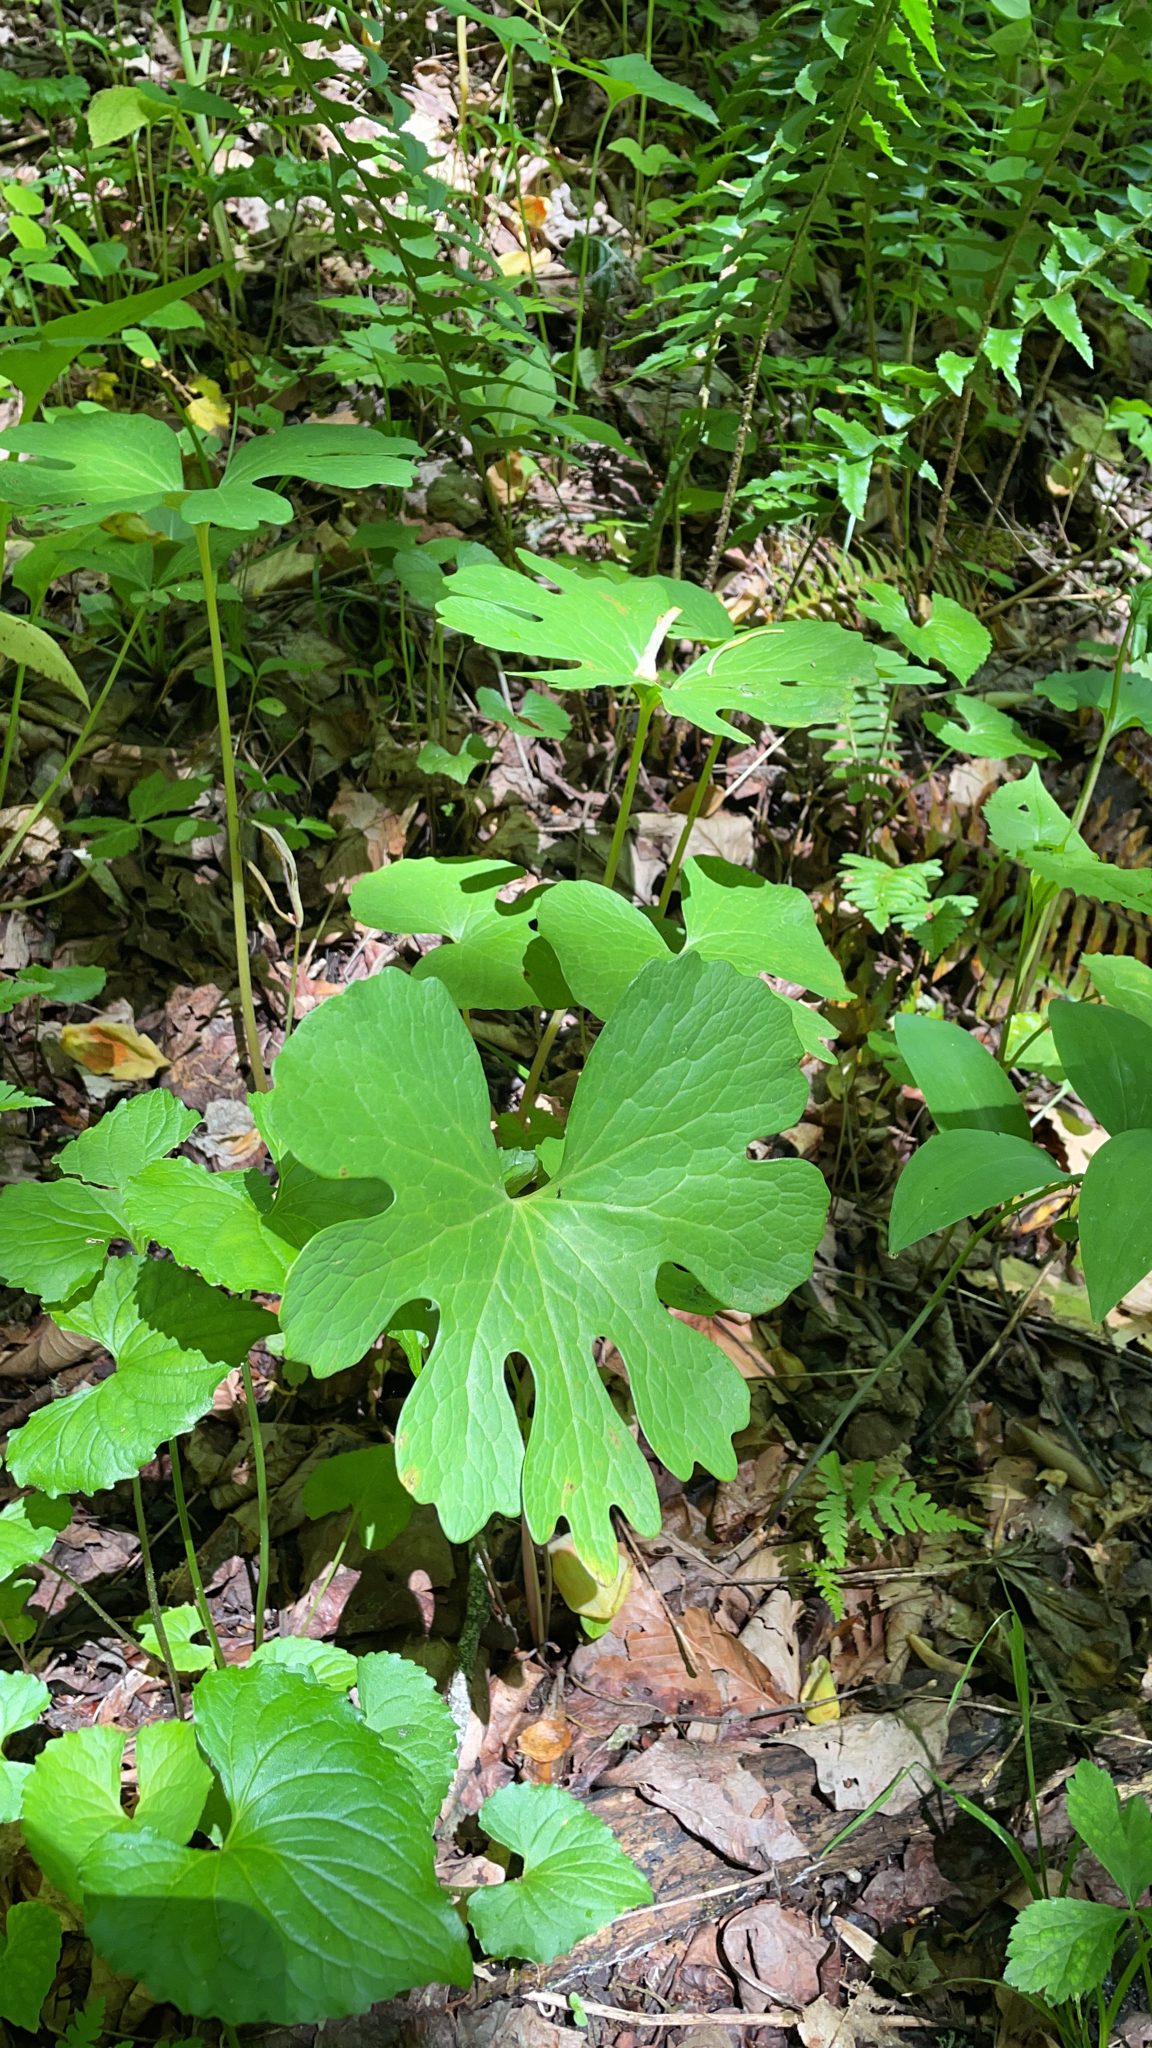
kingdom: Plantae
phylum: Tracheophyta
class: Magnoliopsida
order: Ranunculales
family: Papaveraceae
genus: Sanguinaria
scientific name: Sanguinaria canadensis
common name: Bloodroot
